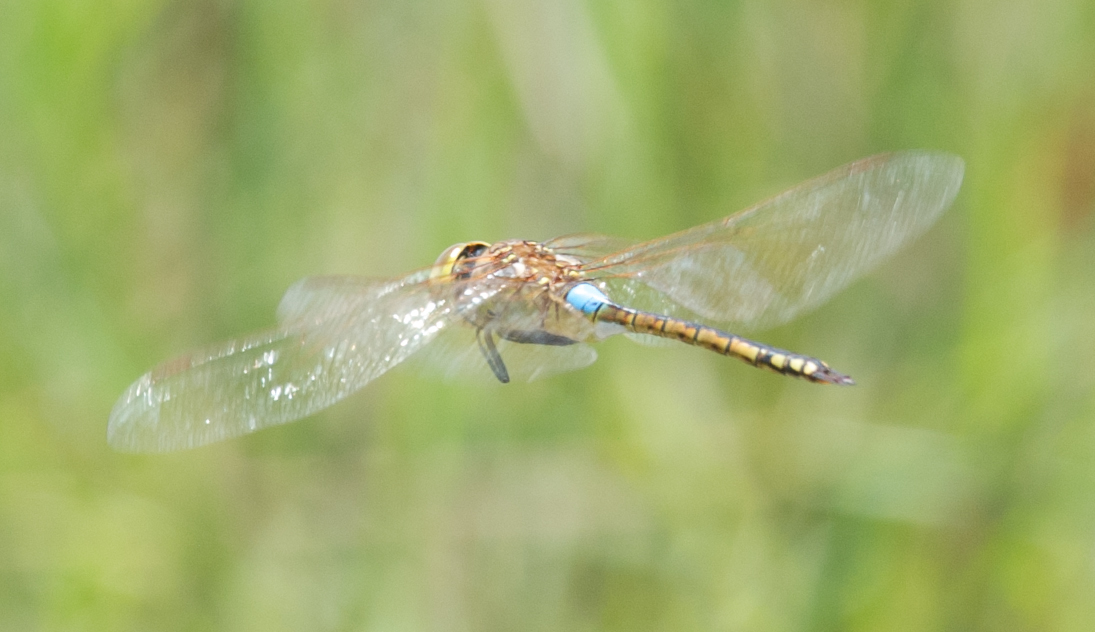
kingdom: Animalia
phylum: Arthropoda
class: Insecta
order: Odonata
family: Aeshnidae
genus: Anax
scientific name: Anax ephippiger
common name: Vagrant emperor
